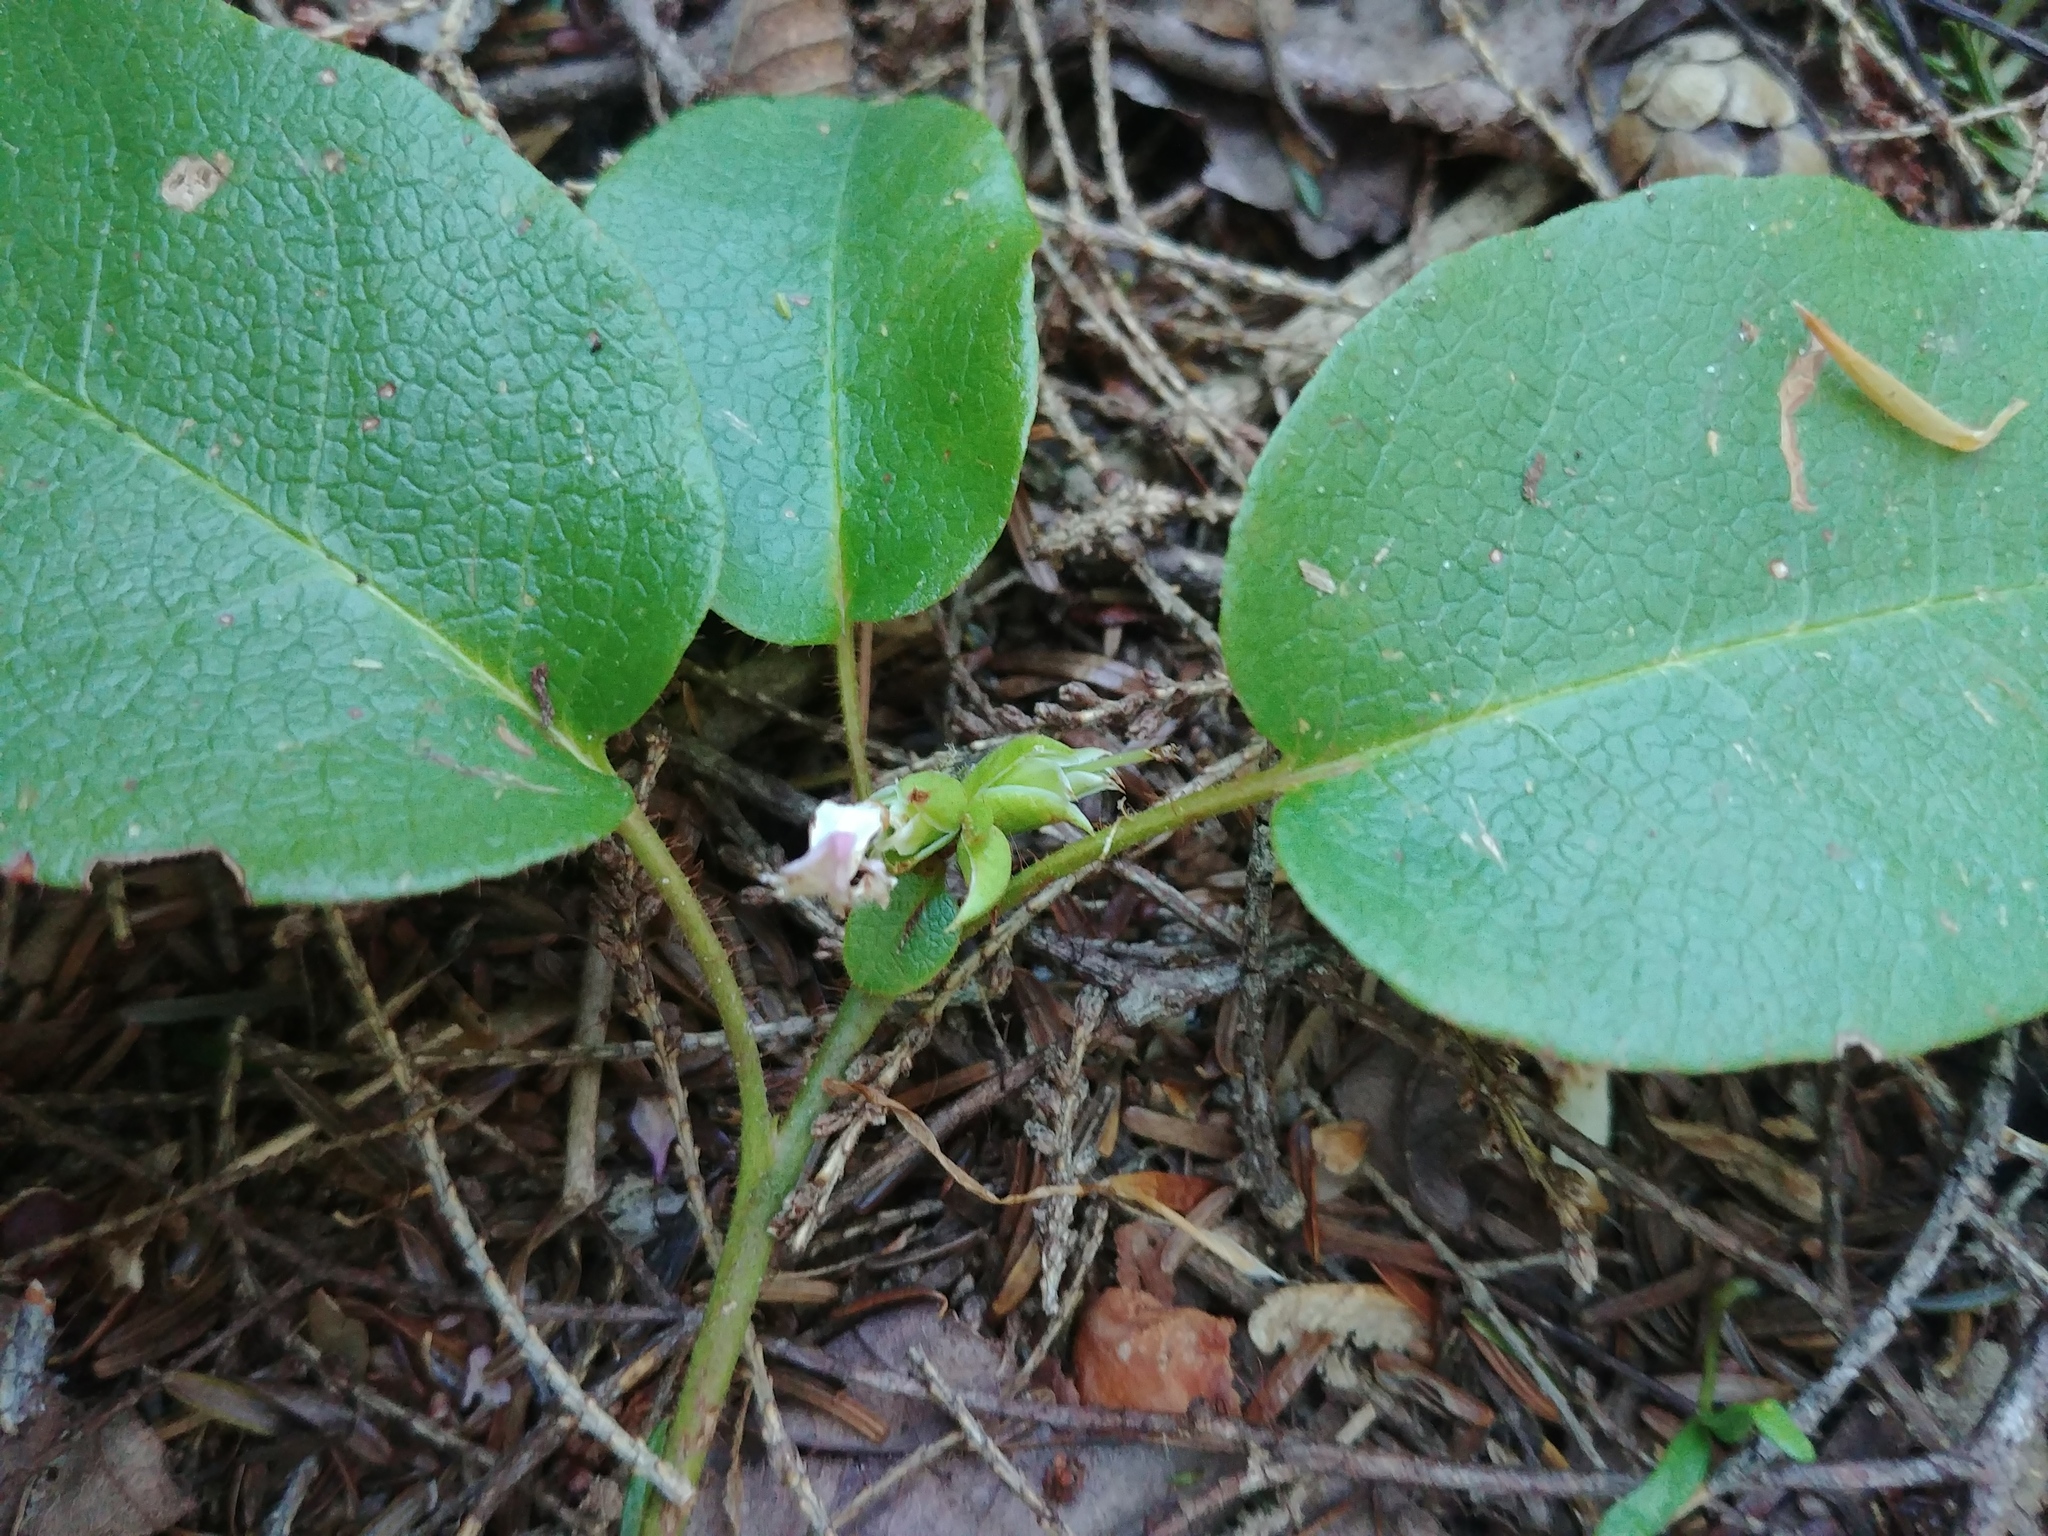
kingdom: Plantae
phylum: Tracheophyta
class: Magnoliopsida
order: Ericales
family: Ericaceae
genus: Epigaea
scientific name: Epigaea repens
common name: Gravelroot
